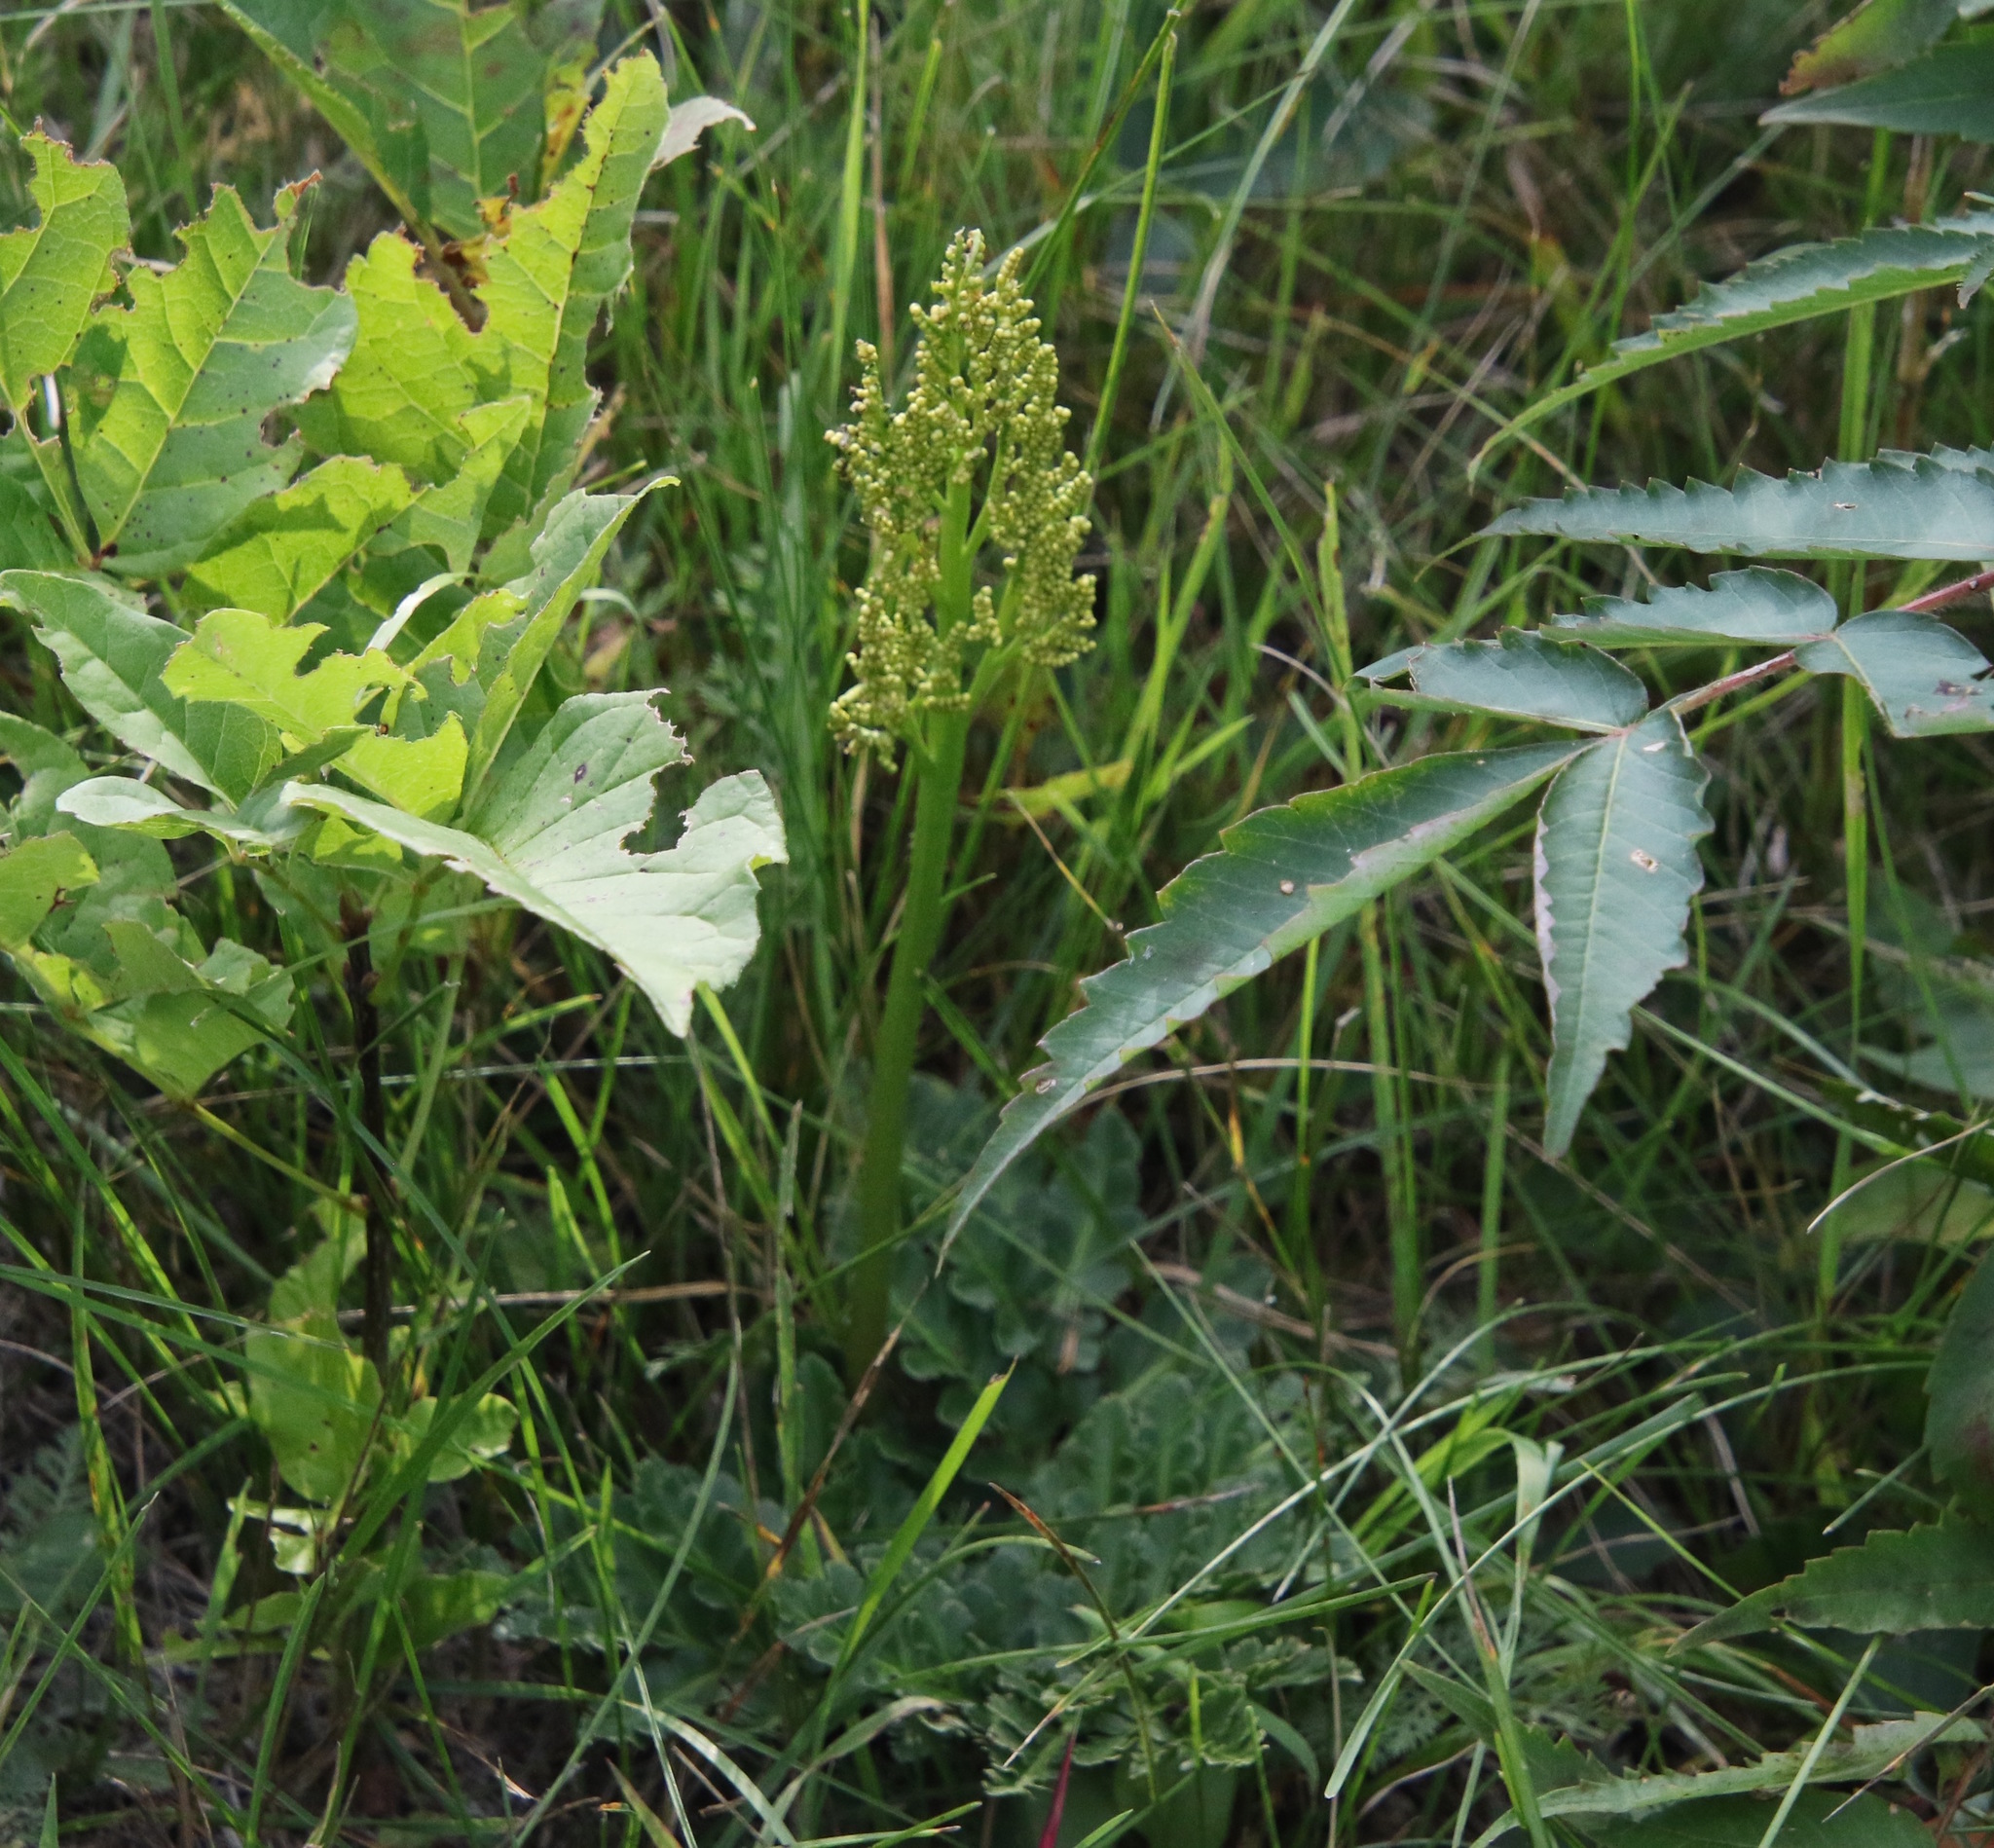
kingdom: Plantae
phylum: Tracheophyta
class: Polypodiopsida
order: Ophioglossales
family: Ophioglossaceae
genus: Sceptridium
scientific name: Sceptridium multifidum
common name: Leathery grape fern
